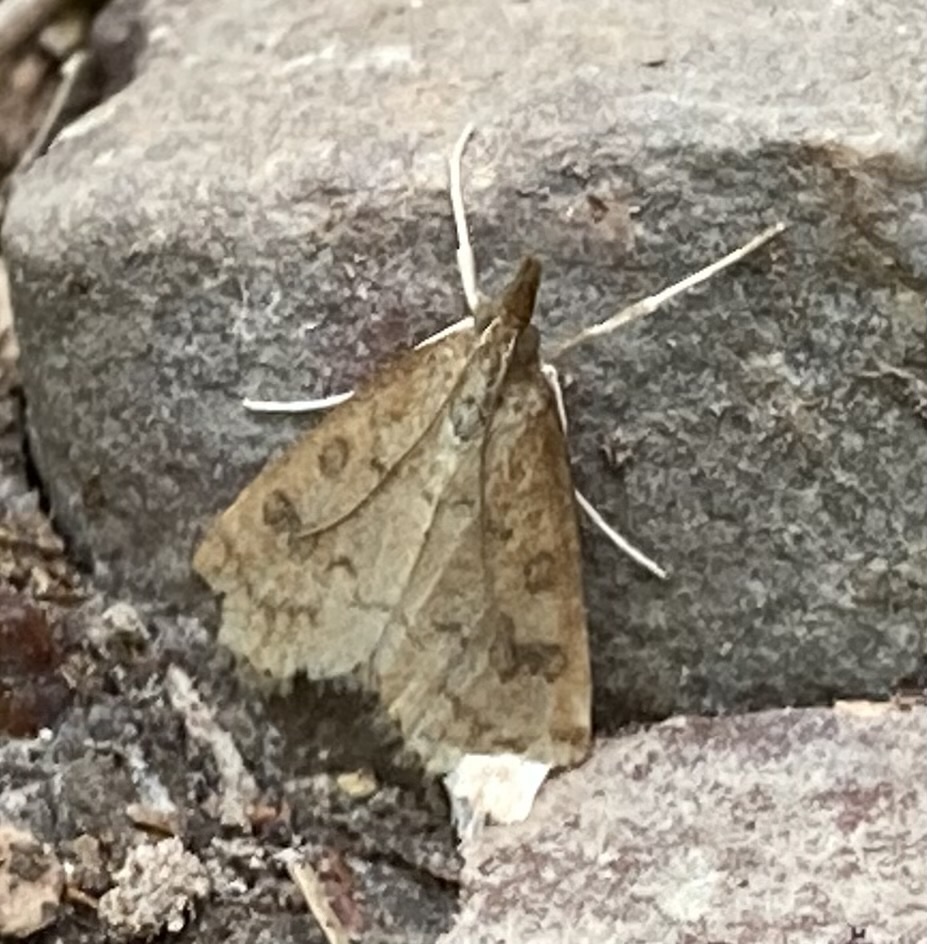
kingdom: Animalia
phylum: Arthropoda
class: Insecta
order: Lepidoptera
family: Crambidae
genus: Udea
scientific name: Udea rubigalis
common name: Celery leaftier moth
